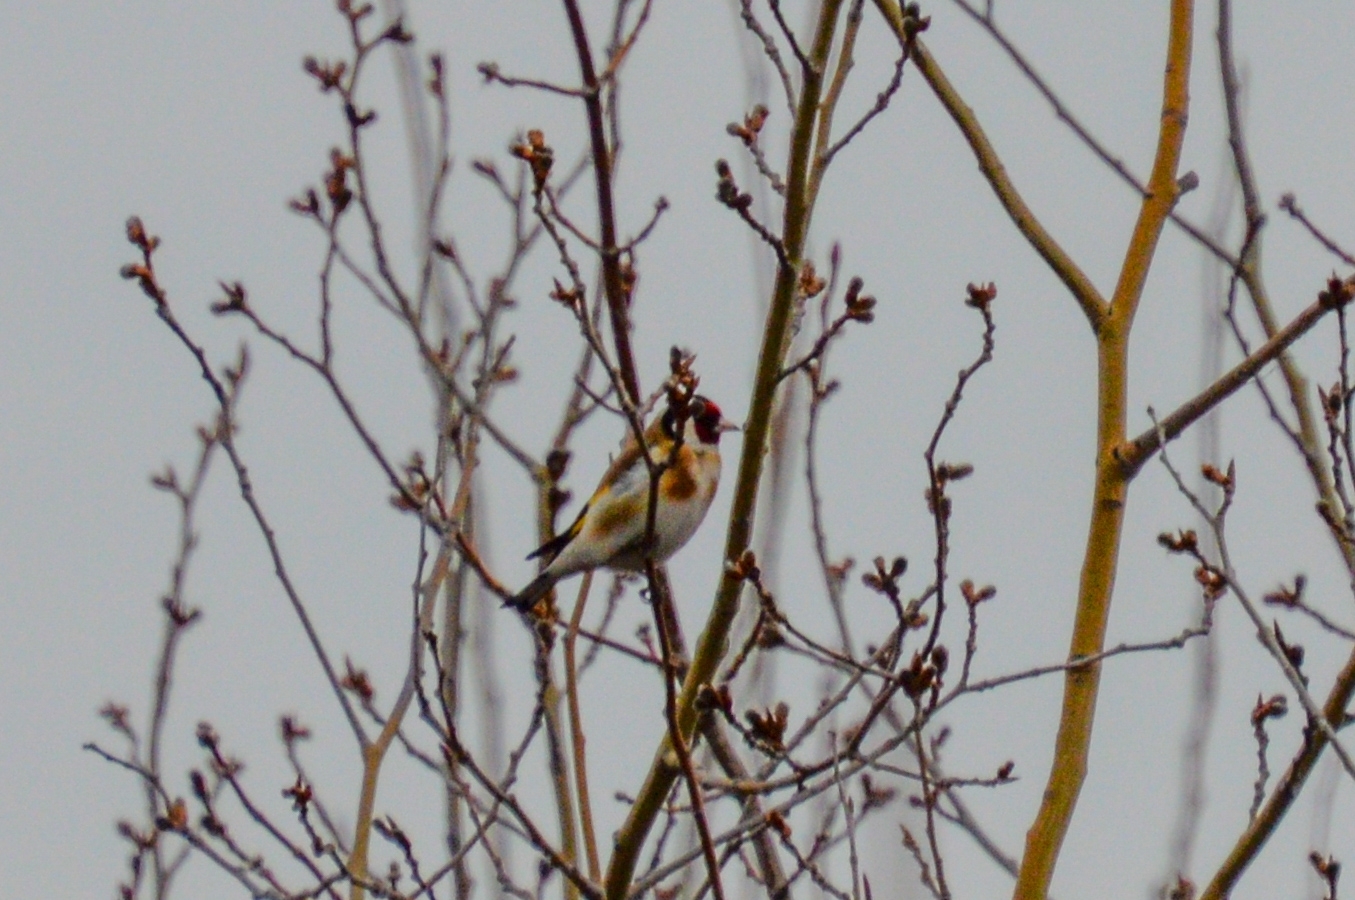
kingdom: Animalia
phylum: Chordata
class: Aves
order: Passeriformes
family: Fringillidae
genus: Carduelis
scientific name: Carduelis carduelis
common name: European goldfinch
